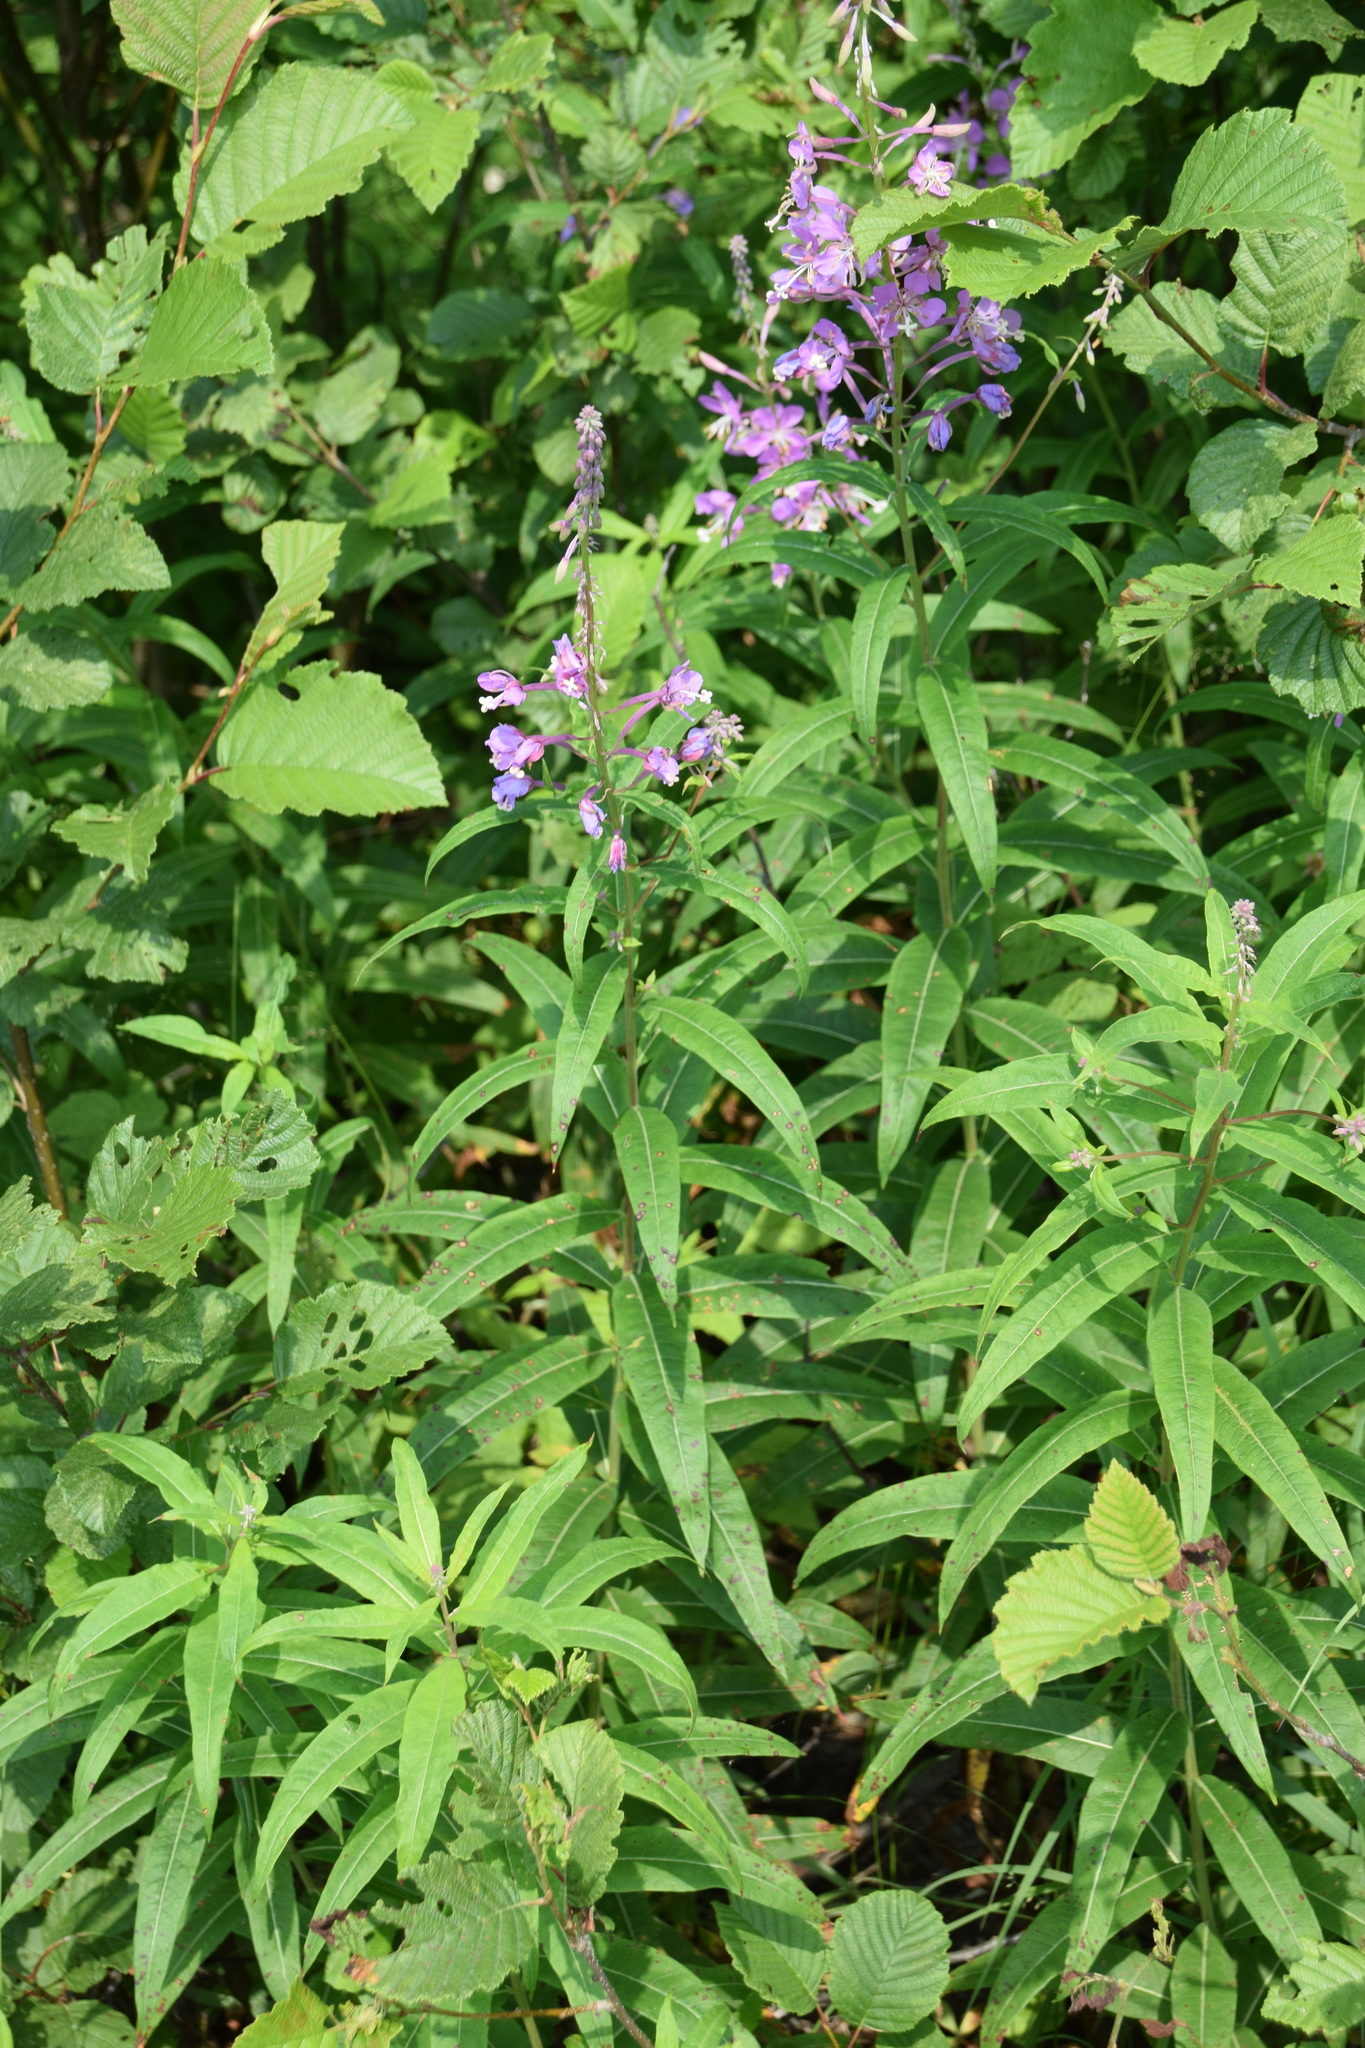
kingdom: Plantae
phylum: Tracheophyta
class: Magnoliopsida
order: Myrtales
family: Onagraceae
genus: Chamaenerion
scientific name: Chamaenerion angustifolium
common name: Fireweed
